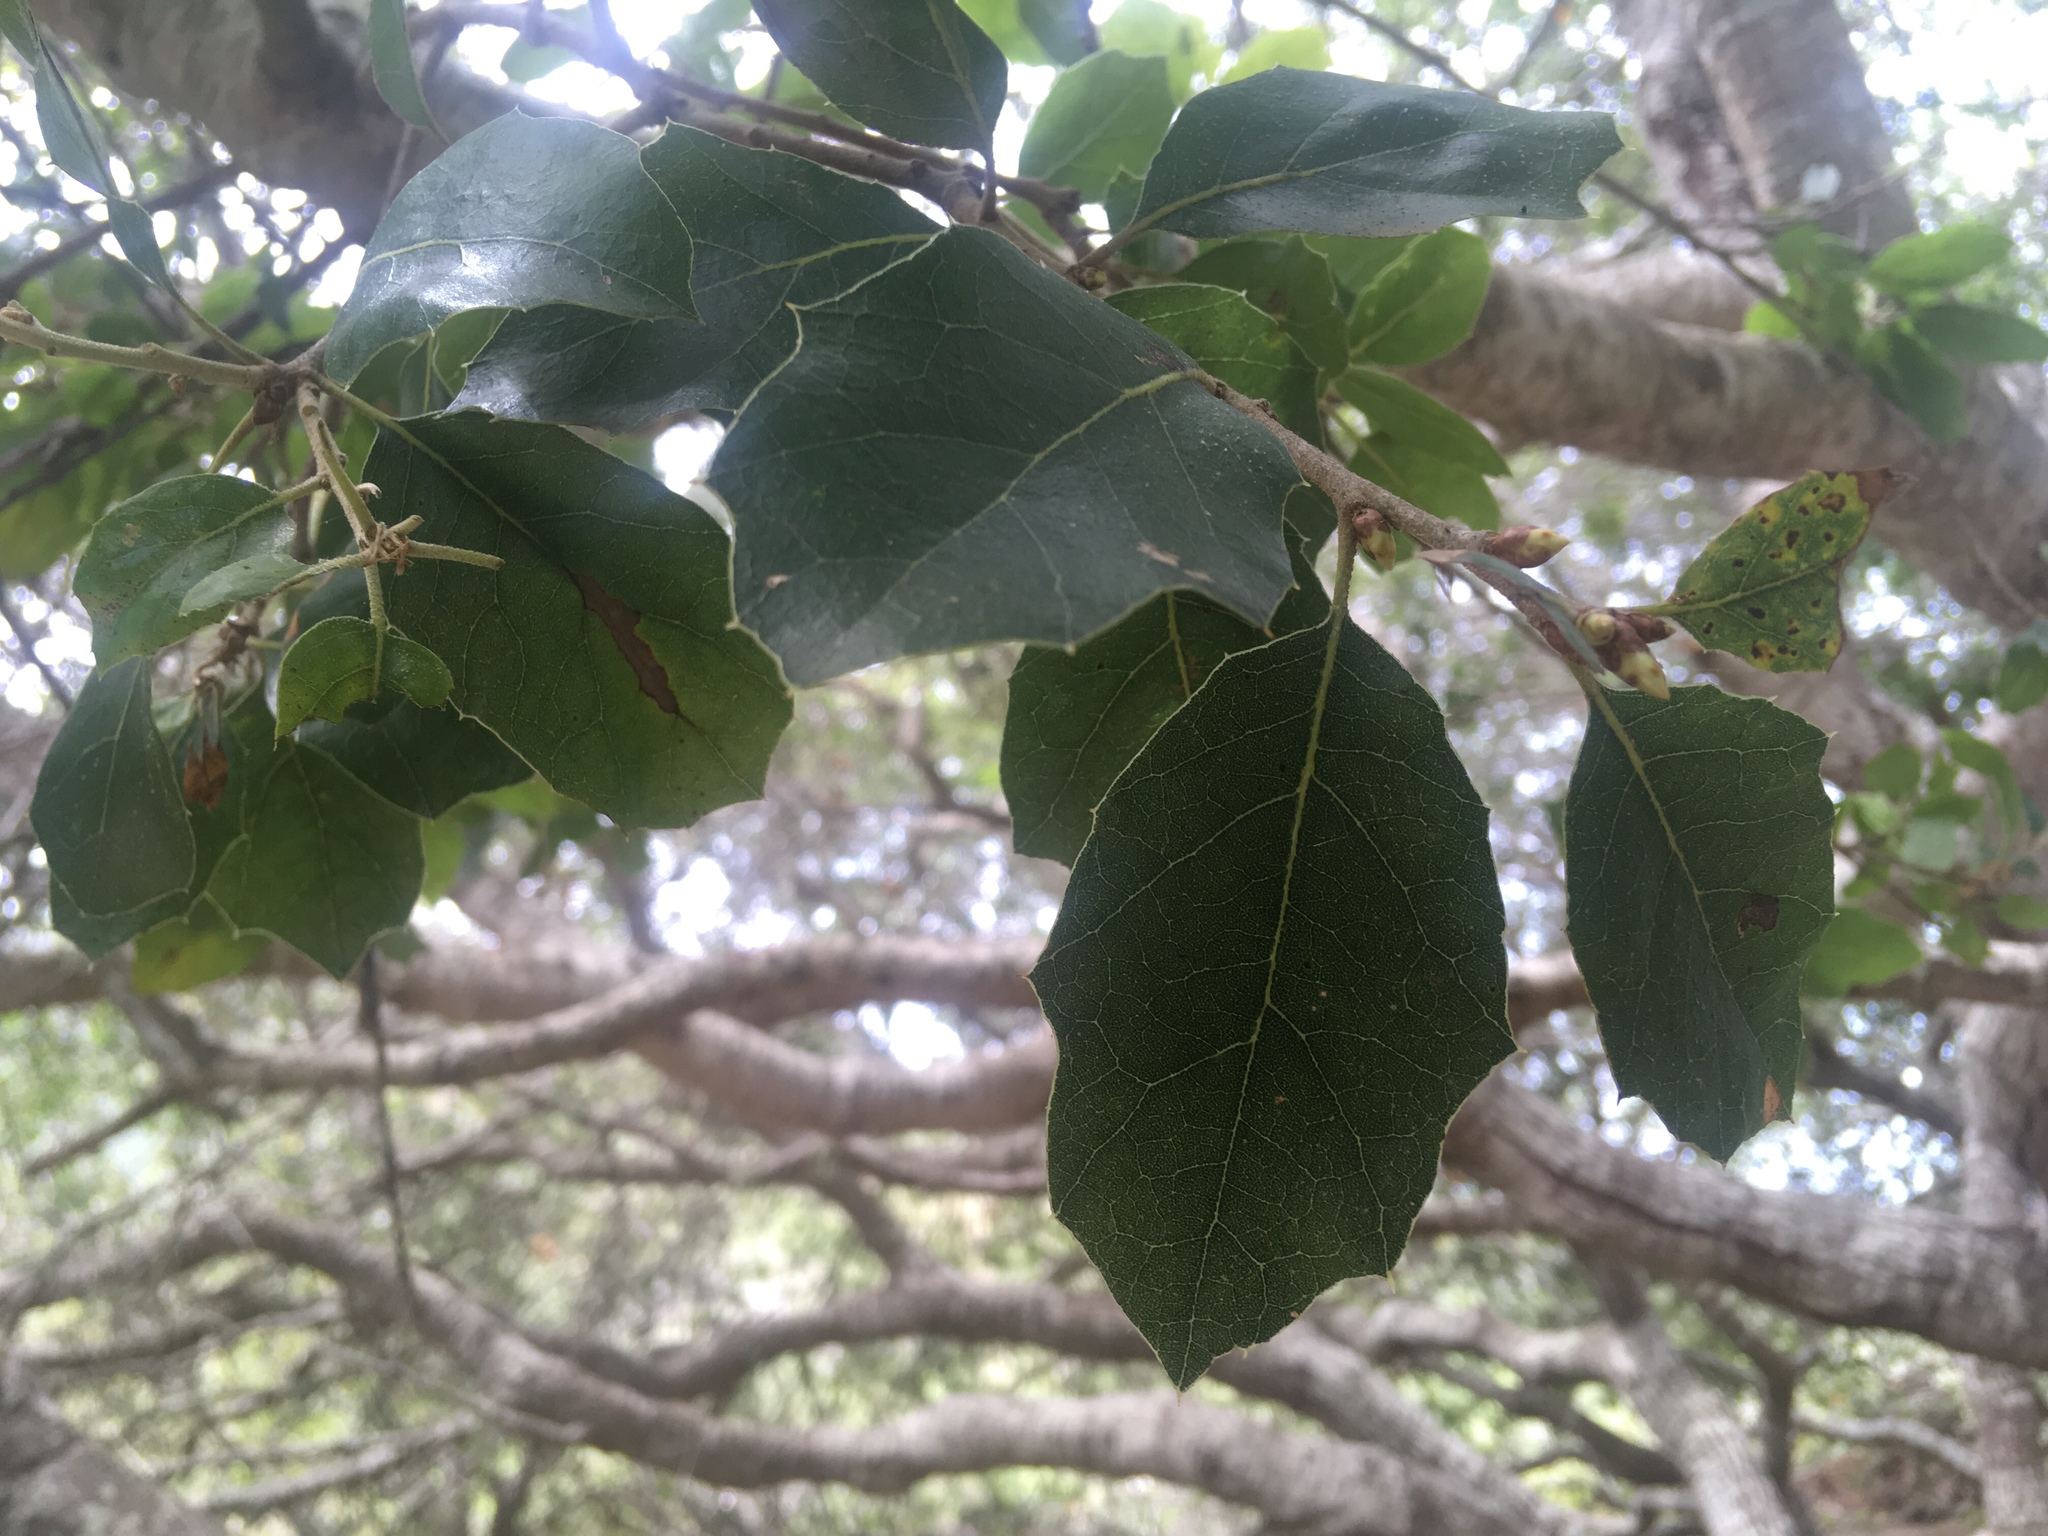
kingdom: Plantae
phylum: Tracheophyta
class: Magnoliopsida
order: Fagales
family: Fagaceae
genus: Quercus
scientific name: Quercus agrifolia
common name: California live oak
